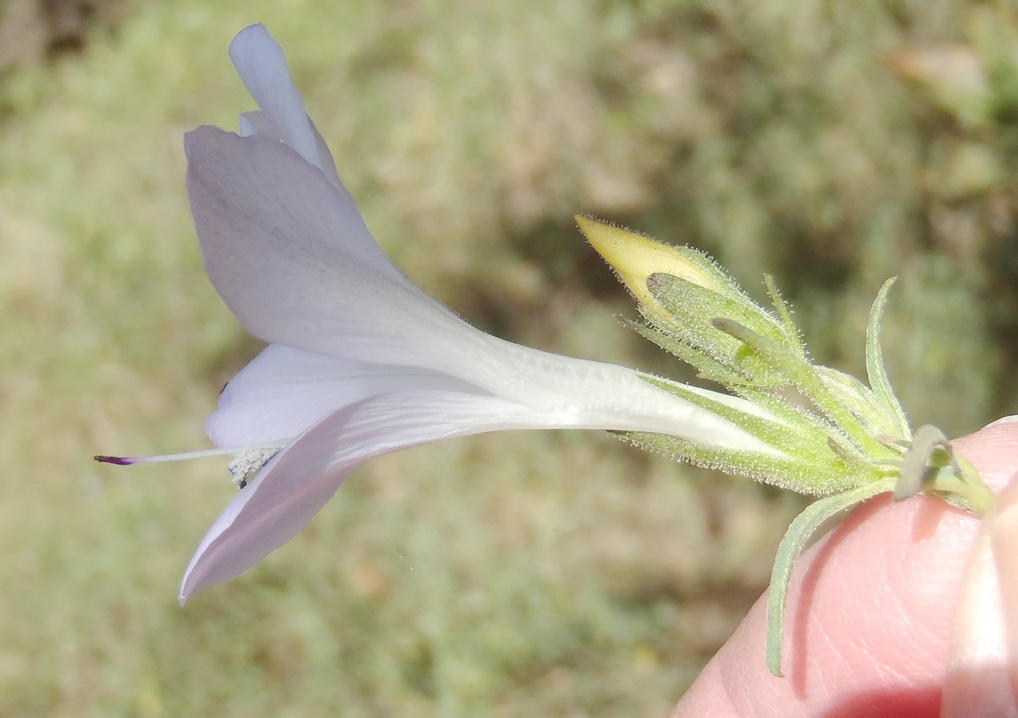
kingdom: Plantae
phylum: Tracheophyta
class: Magnoliopsida
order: Lamiales
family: Acanthaceae
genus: Barleria
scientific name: Barleria pretoriensis
